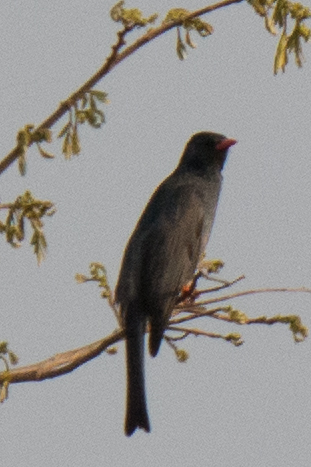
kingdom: Animalia
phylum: Chordata
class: Aves
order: Passeriformes
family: Pycnonotidae
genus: Hypsipetes
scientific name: Hypsipetes leucocephalus
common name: Black bulbul
